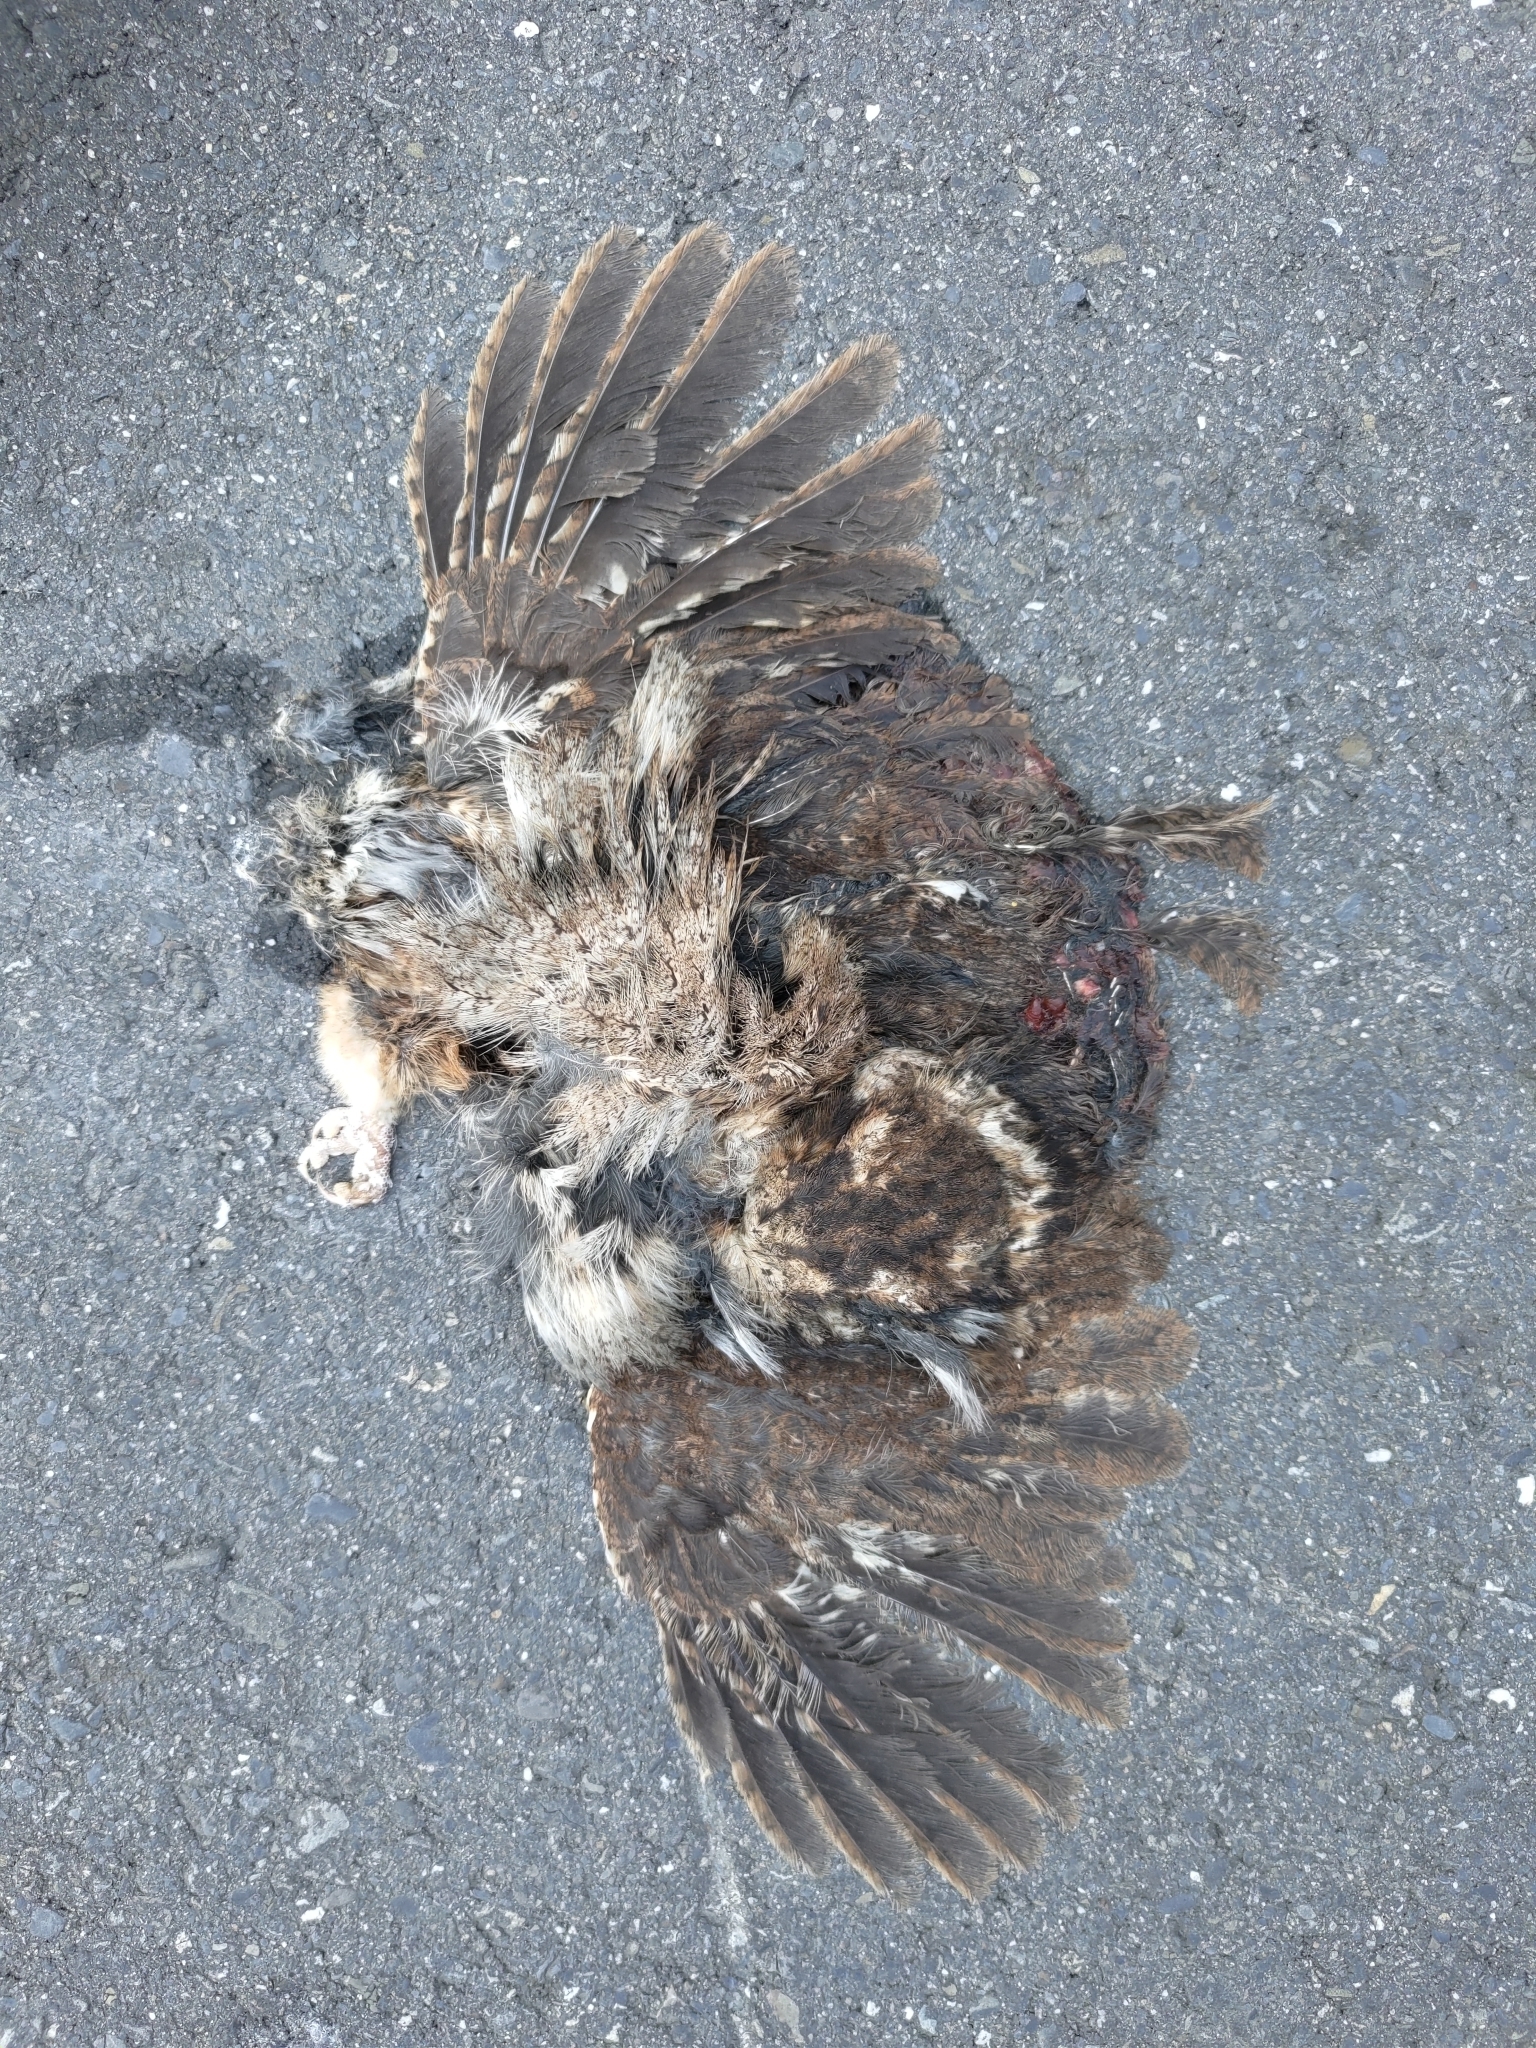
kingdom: Animalia
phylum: Chordata
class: Aves
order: Strigiformes
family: Strigidae
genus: Otus
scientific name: Otus lettia
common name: Collared scops owl
